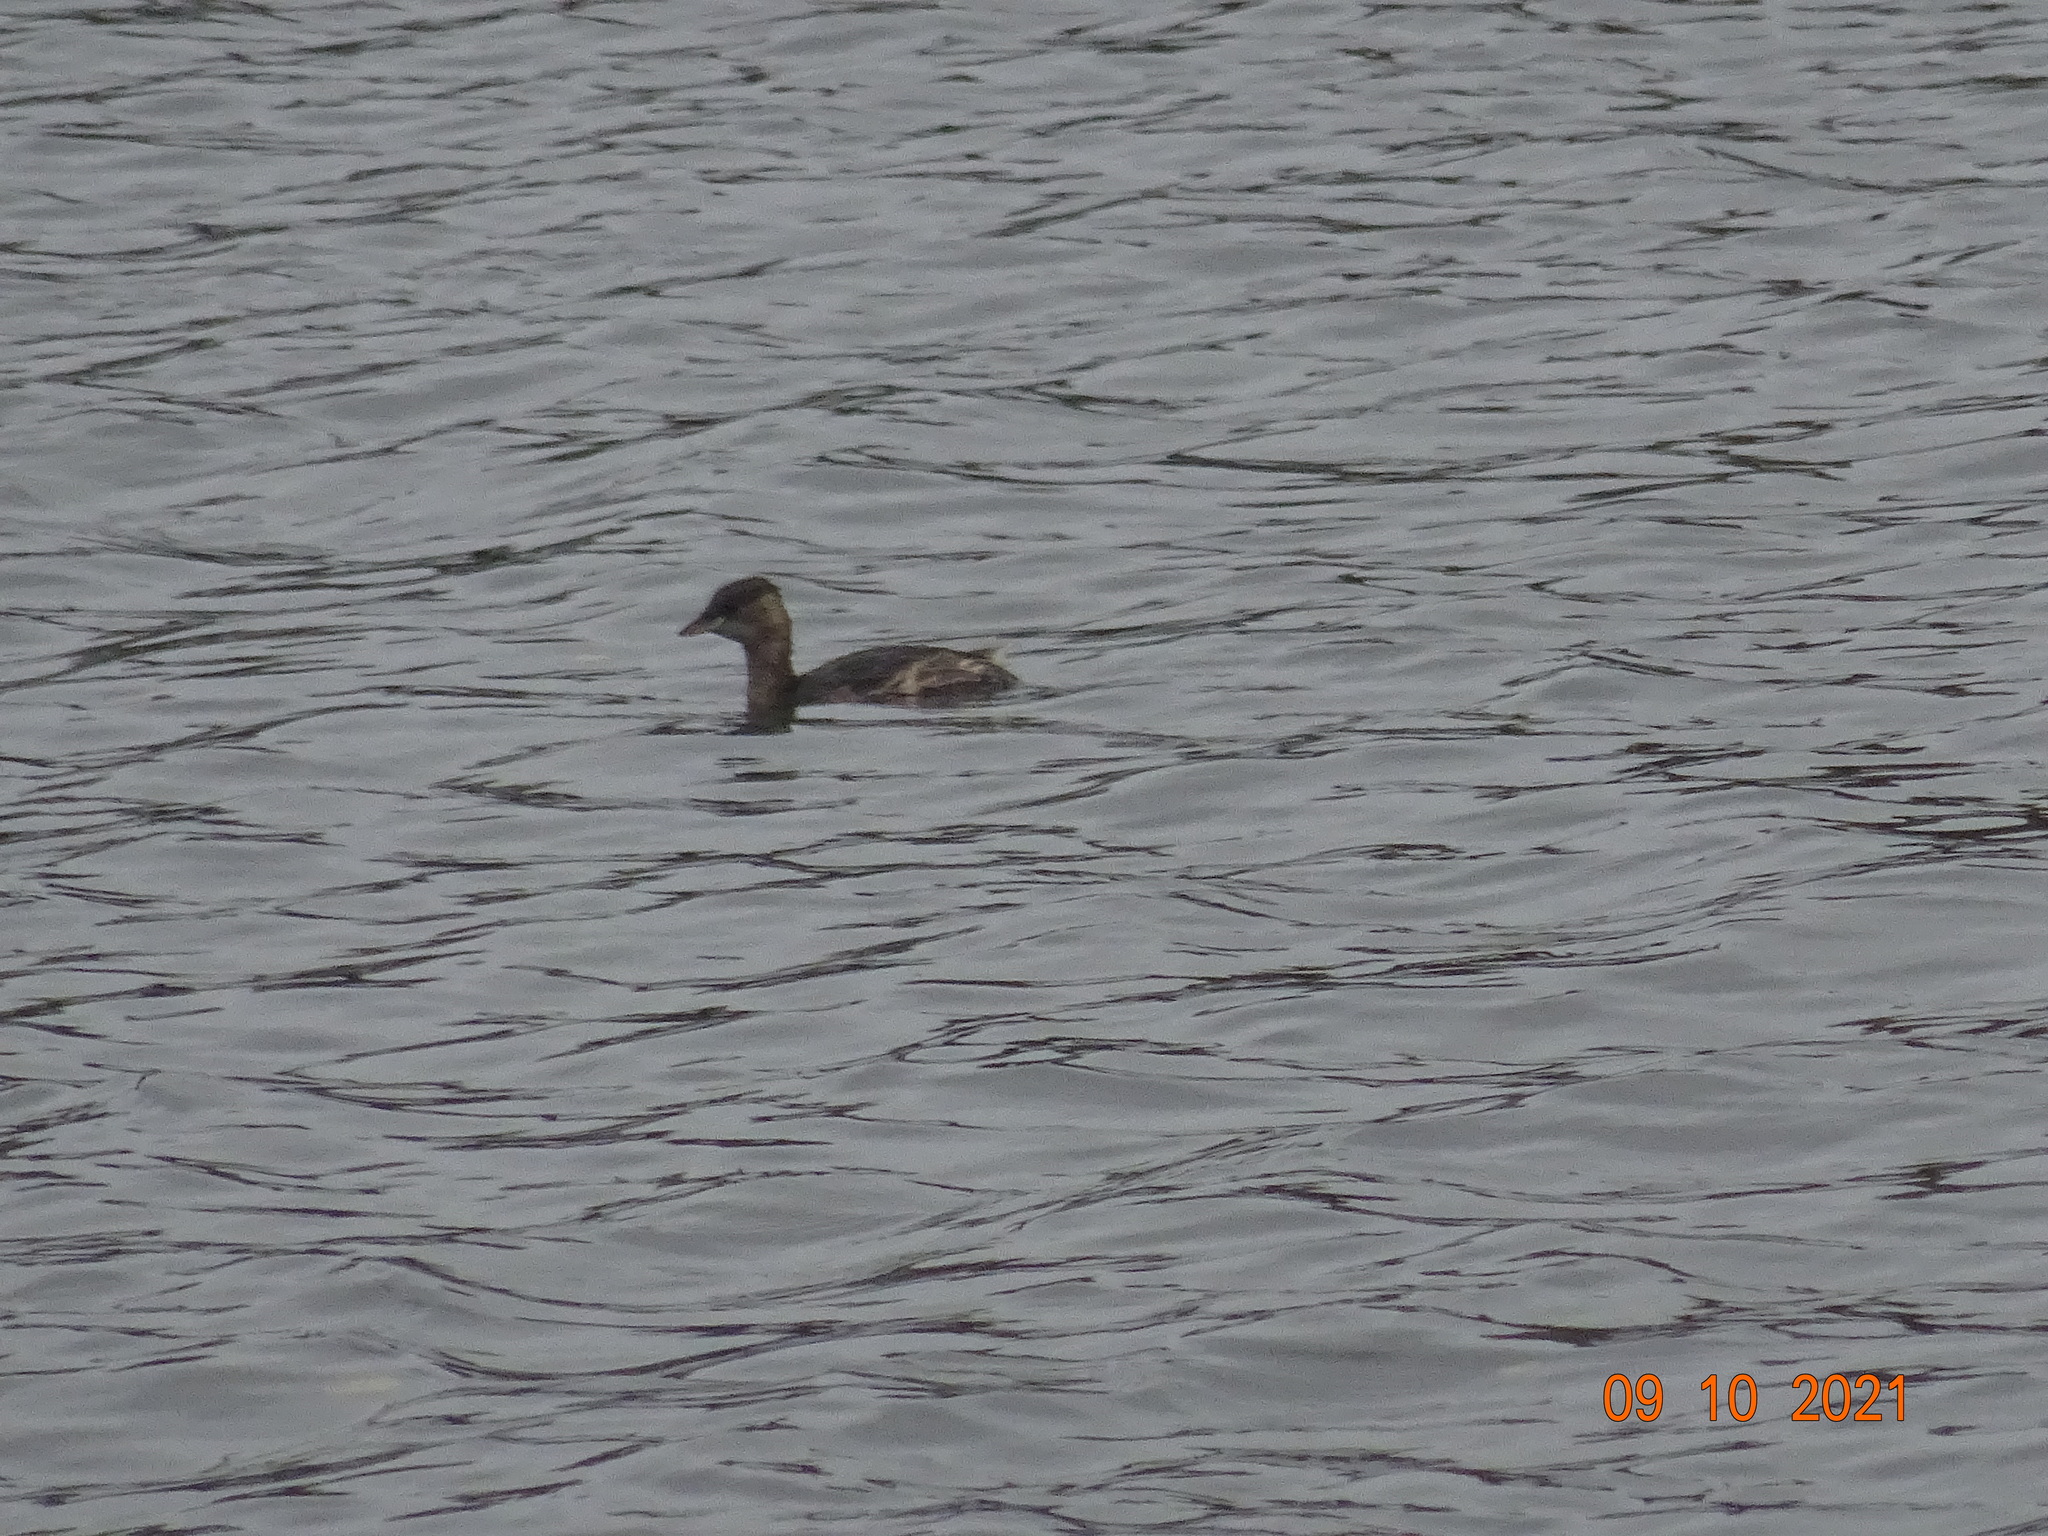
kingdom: Animalia
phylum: Chordata
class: Aves
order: Podicipediformes
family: Podicipedidae
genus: Tachybaptus
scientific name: Tachybaptus ruficollis
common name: Little grebe
